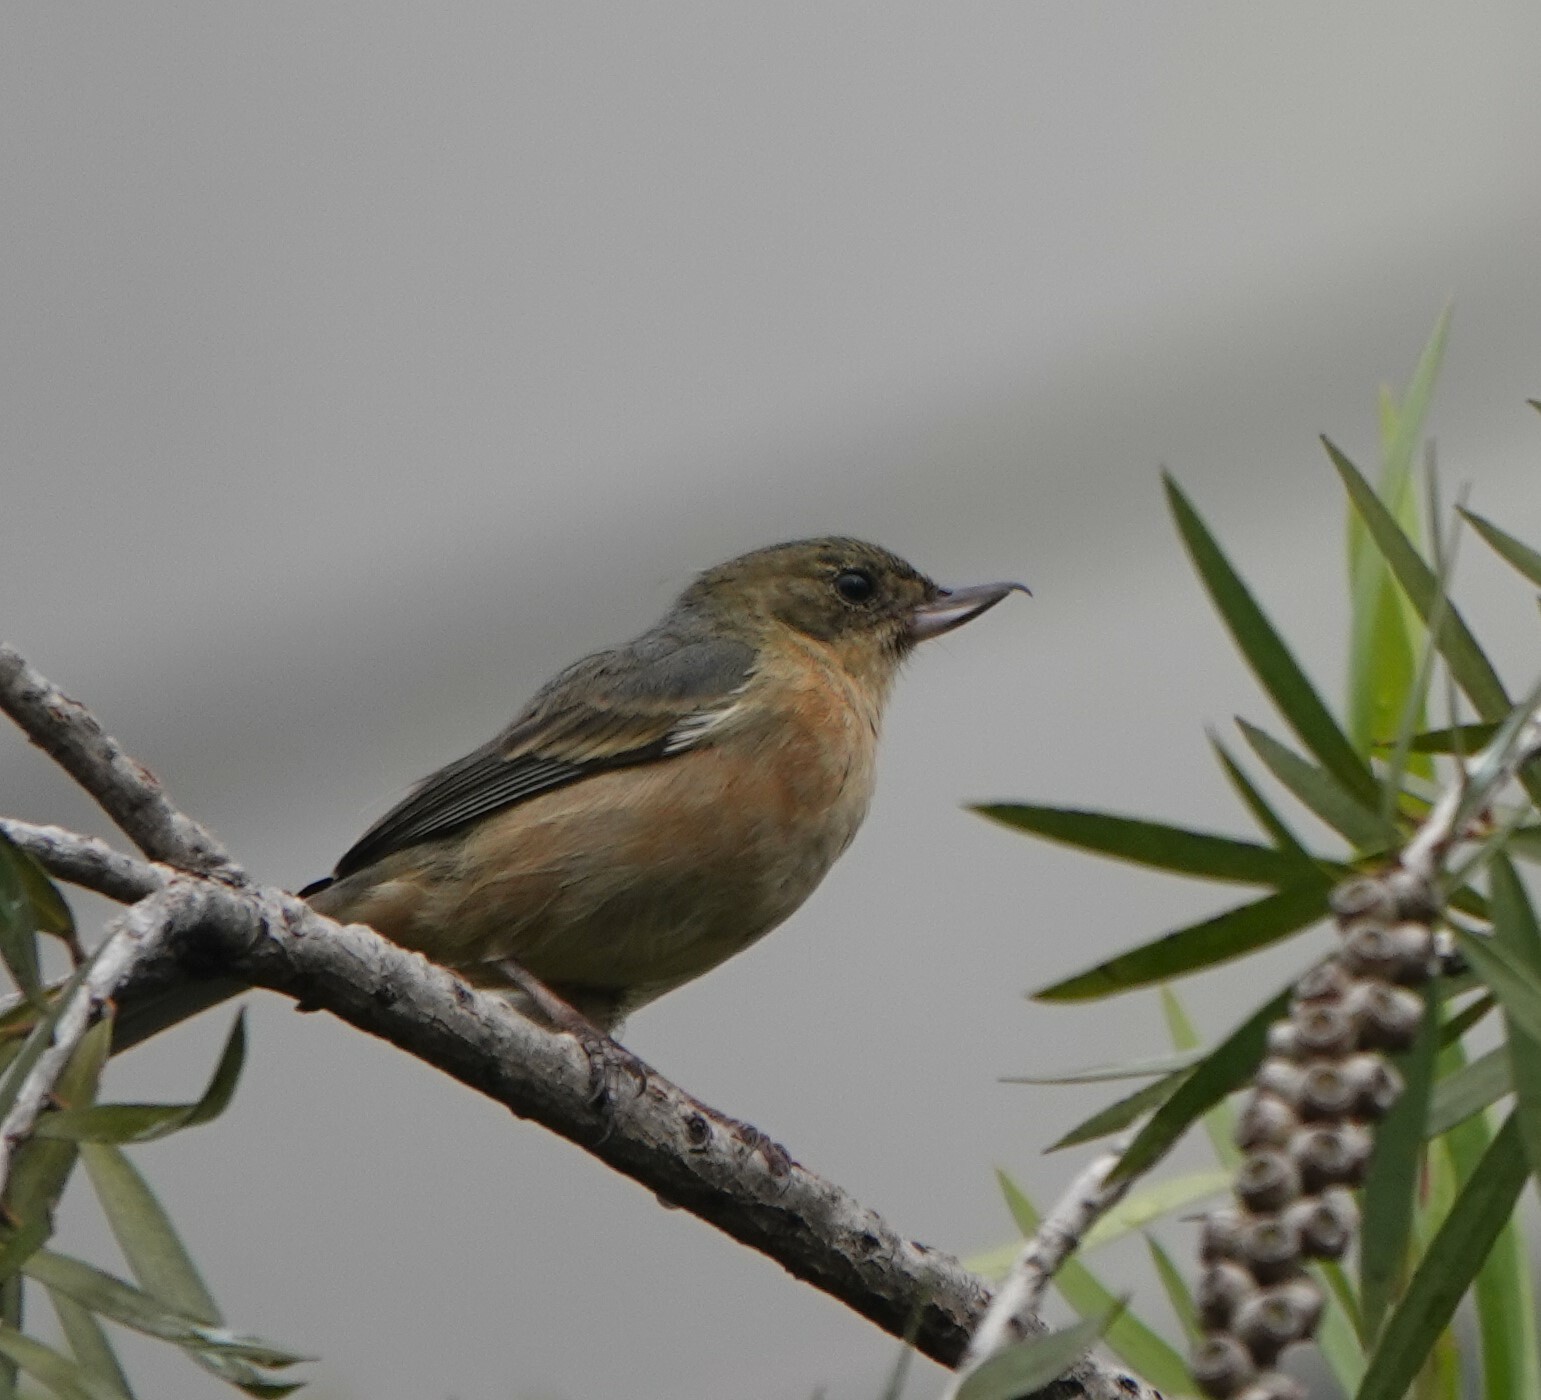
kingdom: Animalia
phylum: Chordata
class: Aves
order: Passeriformes
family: Thraupidae
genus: Diglossa
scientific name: Diglossa albilatera
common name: White-sided flowerpiercer
